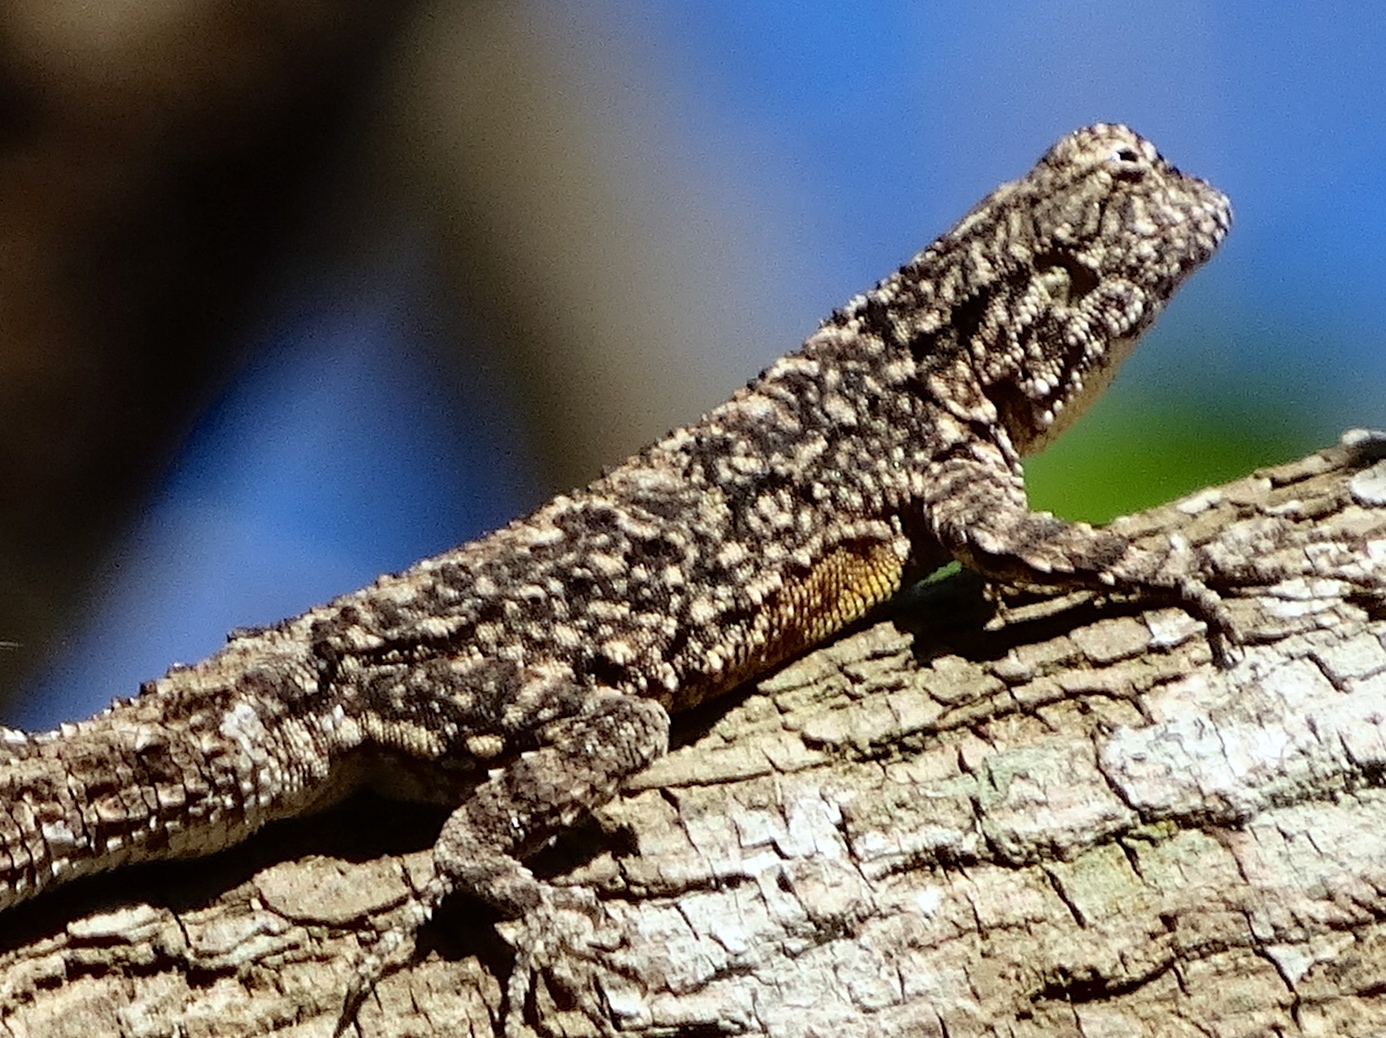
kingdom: Animalia
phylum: Chordata
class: Squamata
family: Phrynosomatidae
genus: Urosaurus
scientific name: Urosaurus bicarinatus
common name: Tropical tree lizard
